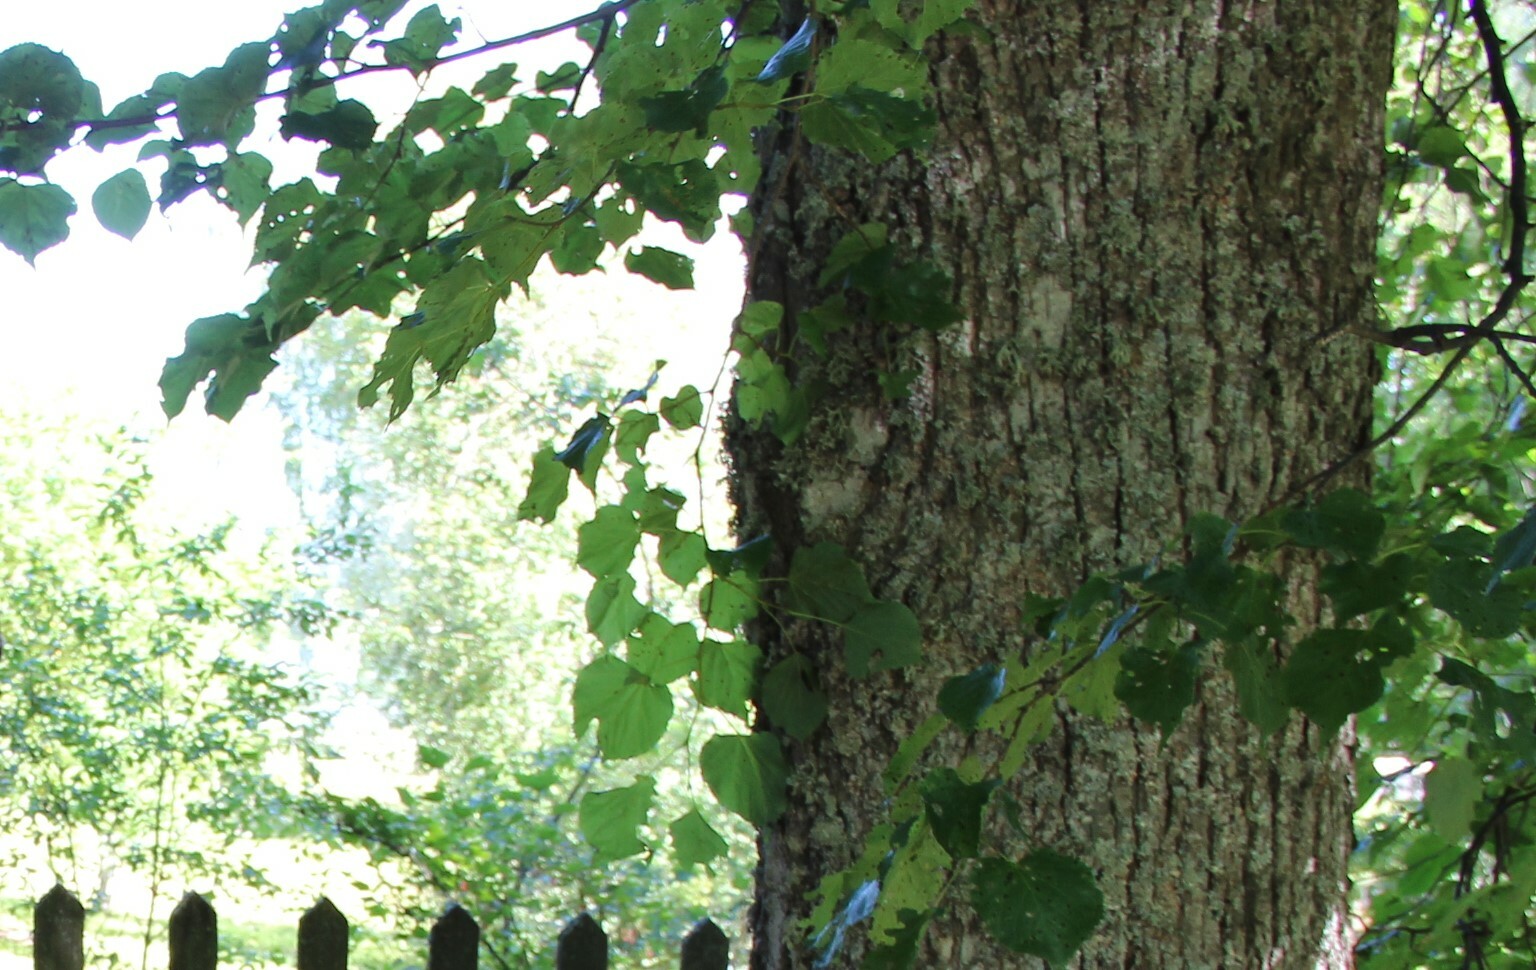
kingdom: Plantae
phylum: Tracheophyta
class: Magnoliopsida
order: Malvales
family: Malvaceae
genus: Tilia
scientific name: Tilia cordata
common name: Small-leaved lime
